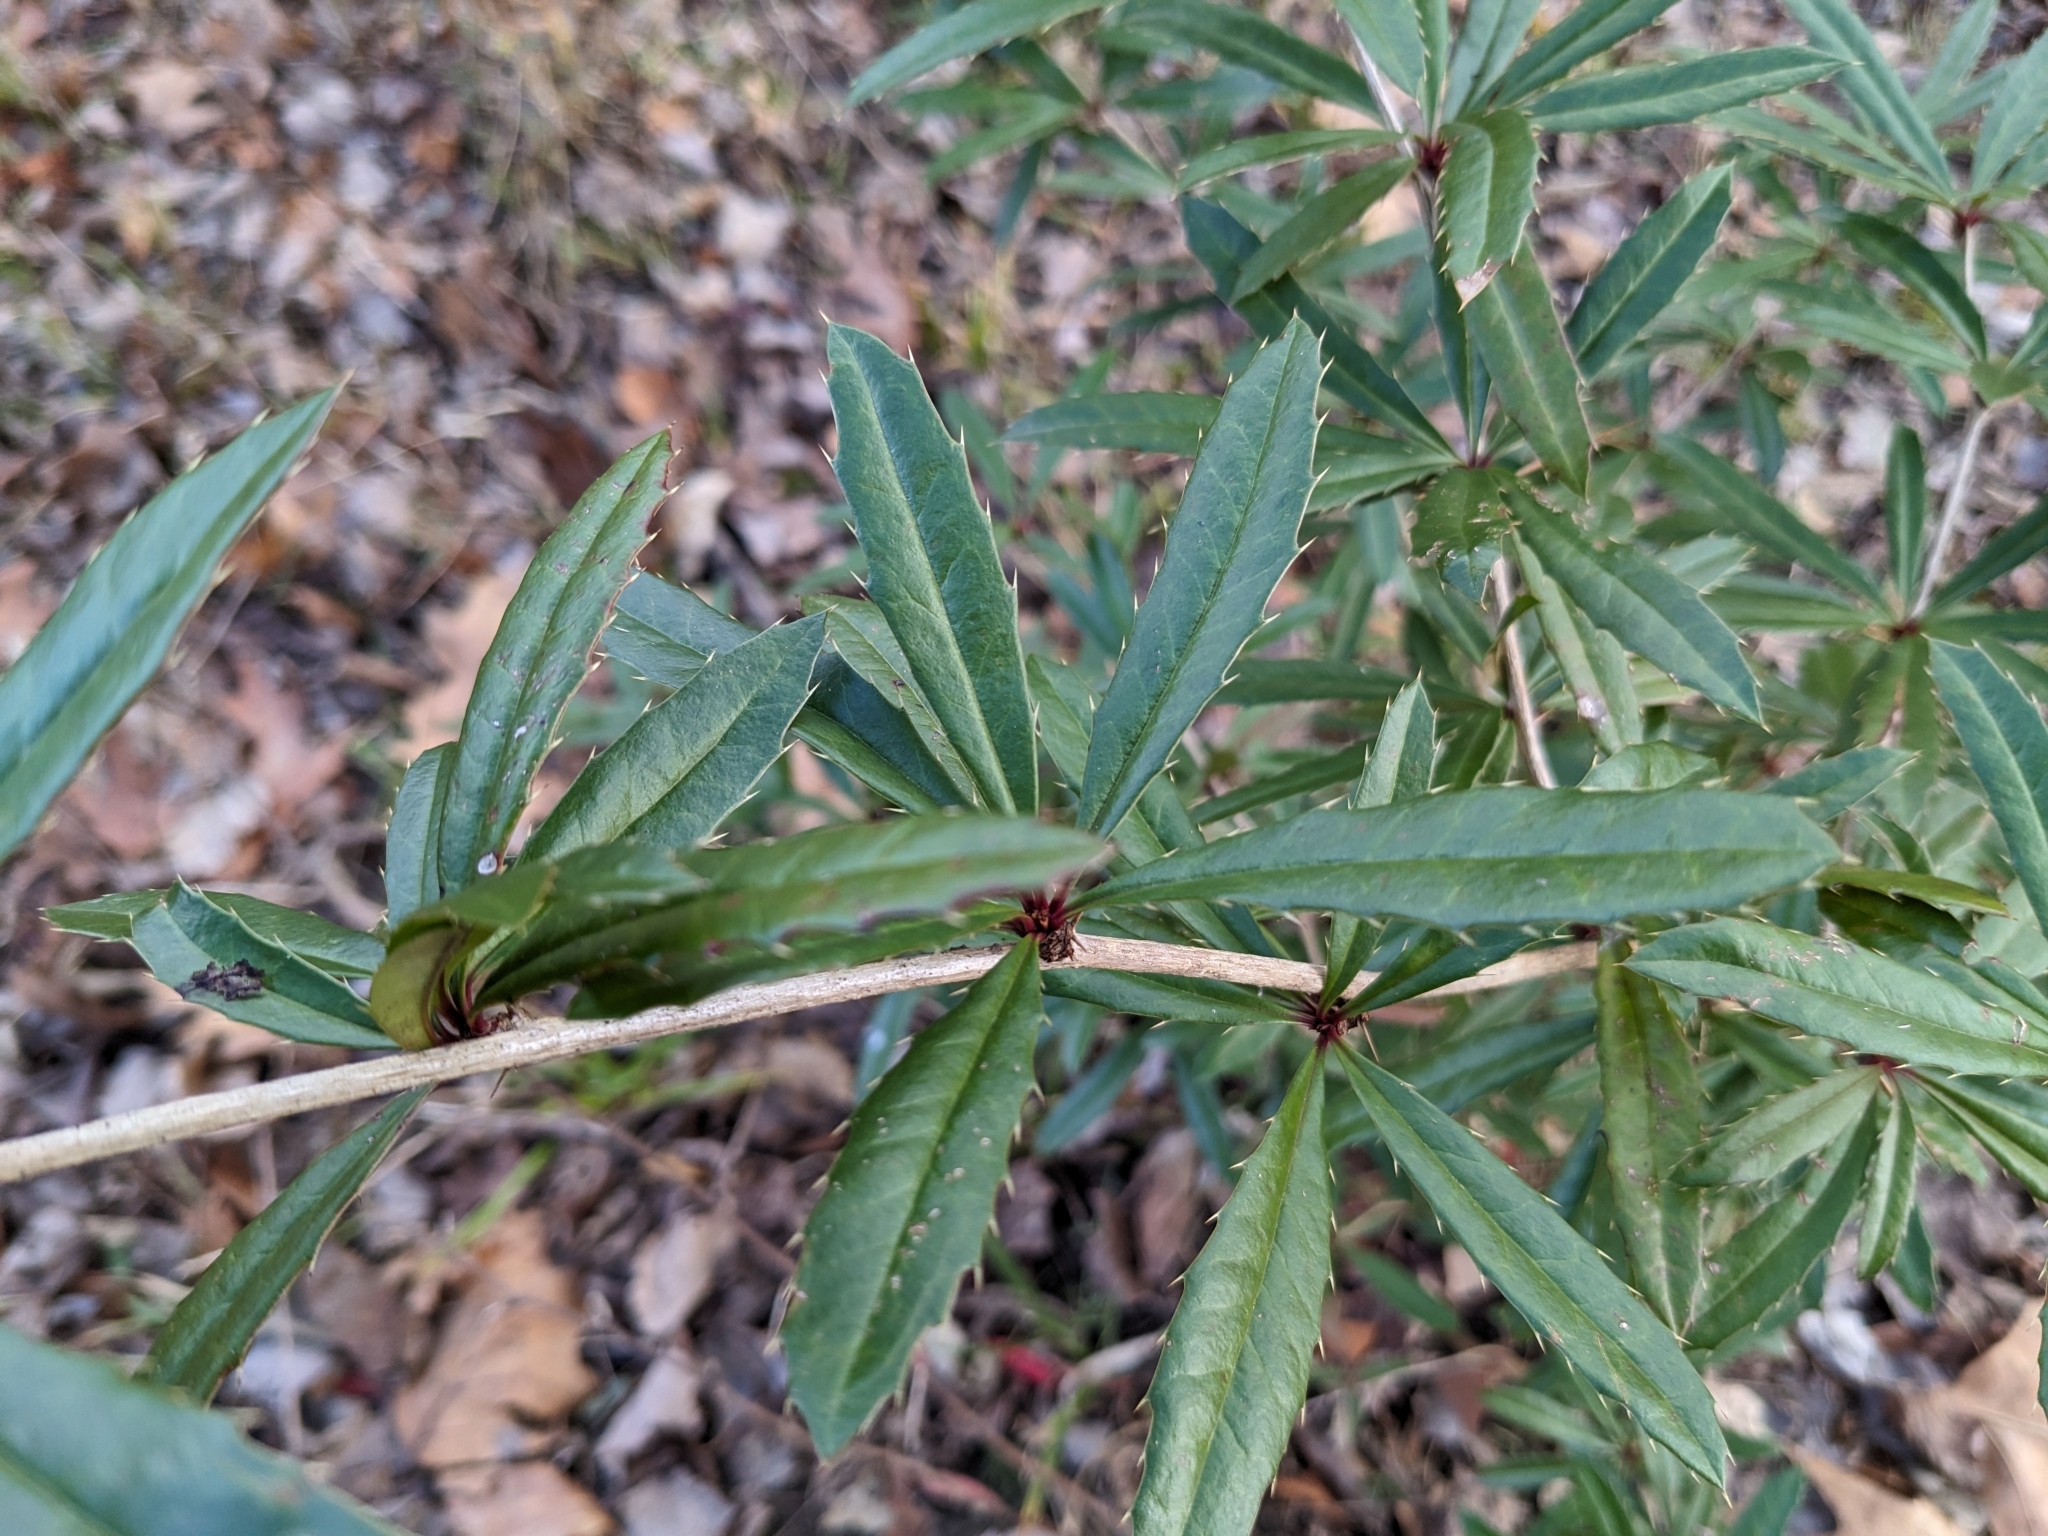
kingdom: Plantae
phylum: Tracheophyta
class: Magnoliopsida
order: Ranunculales
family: Berberidaceae
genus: Berberis
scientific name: Berberis julianae
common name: Wintergreen barberry
